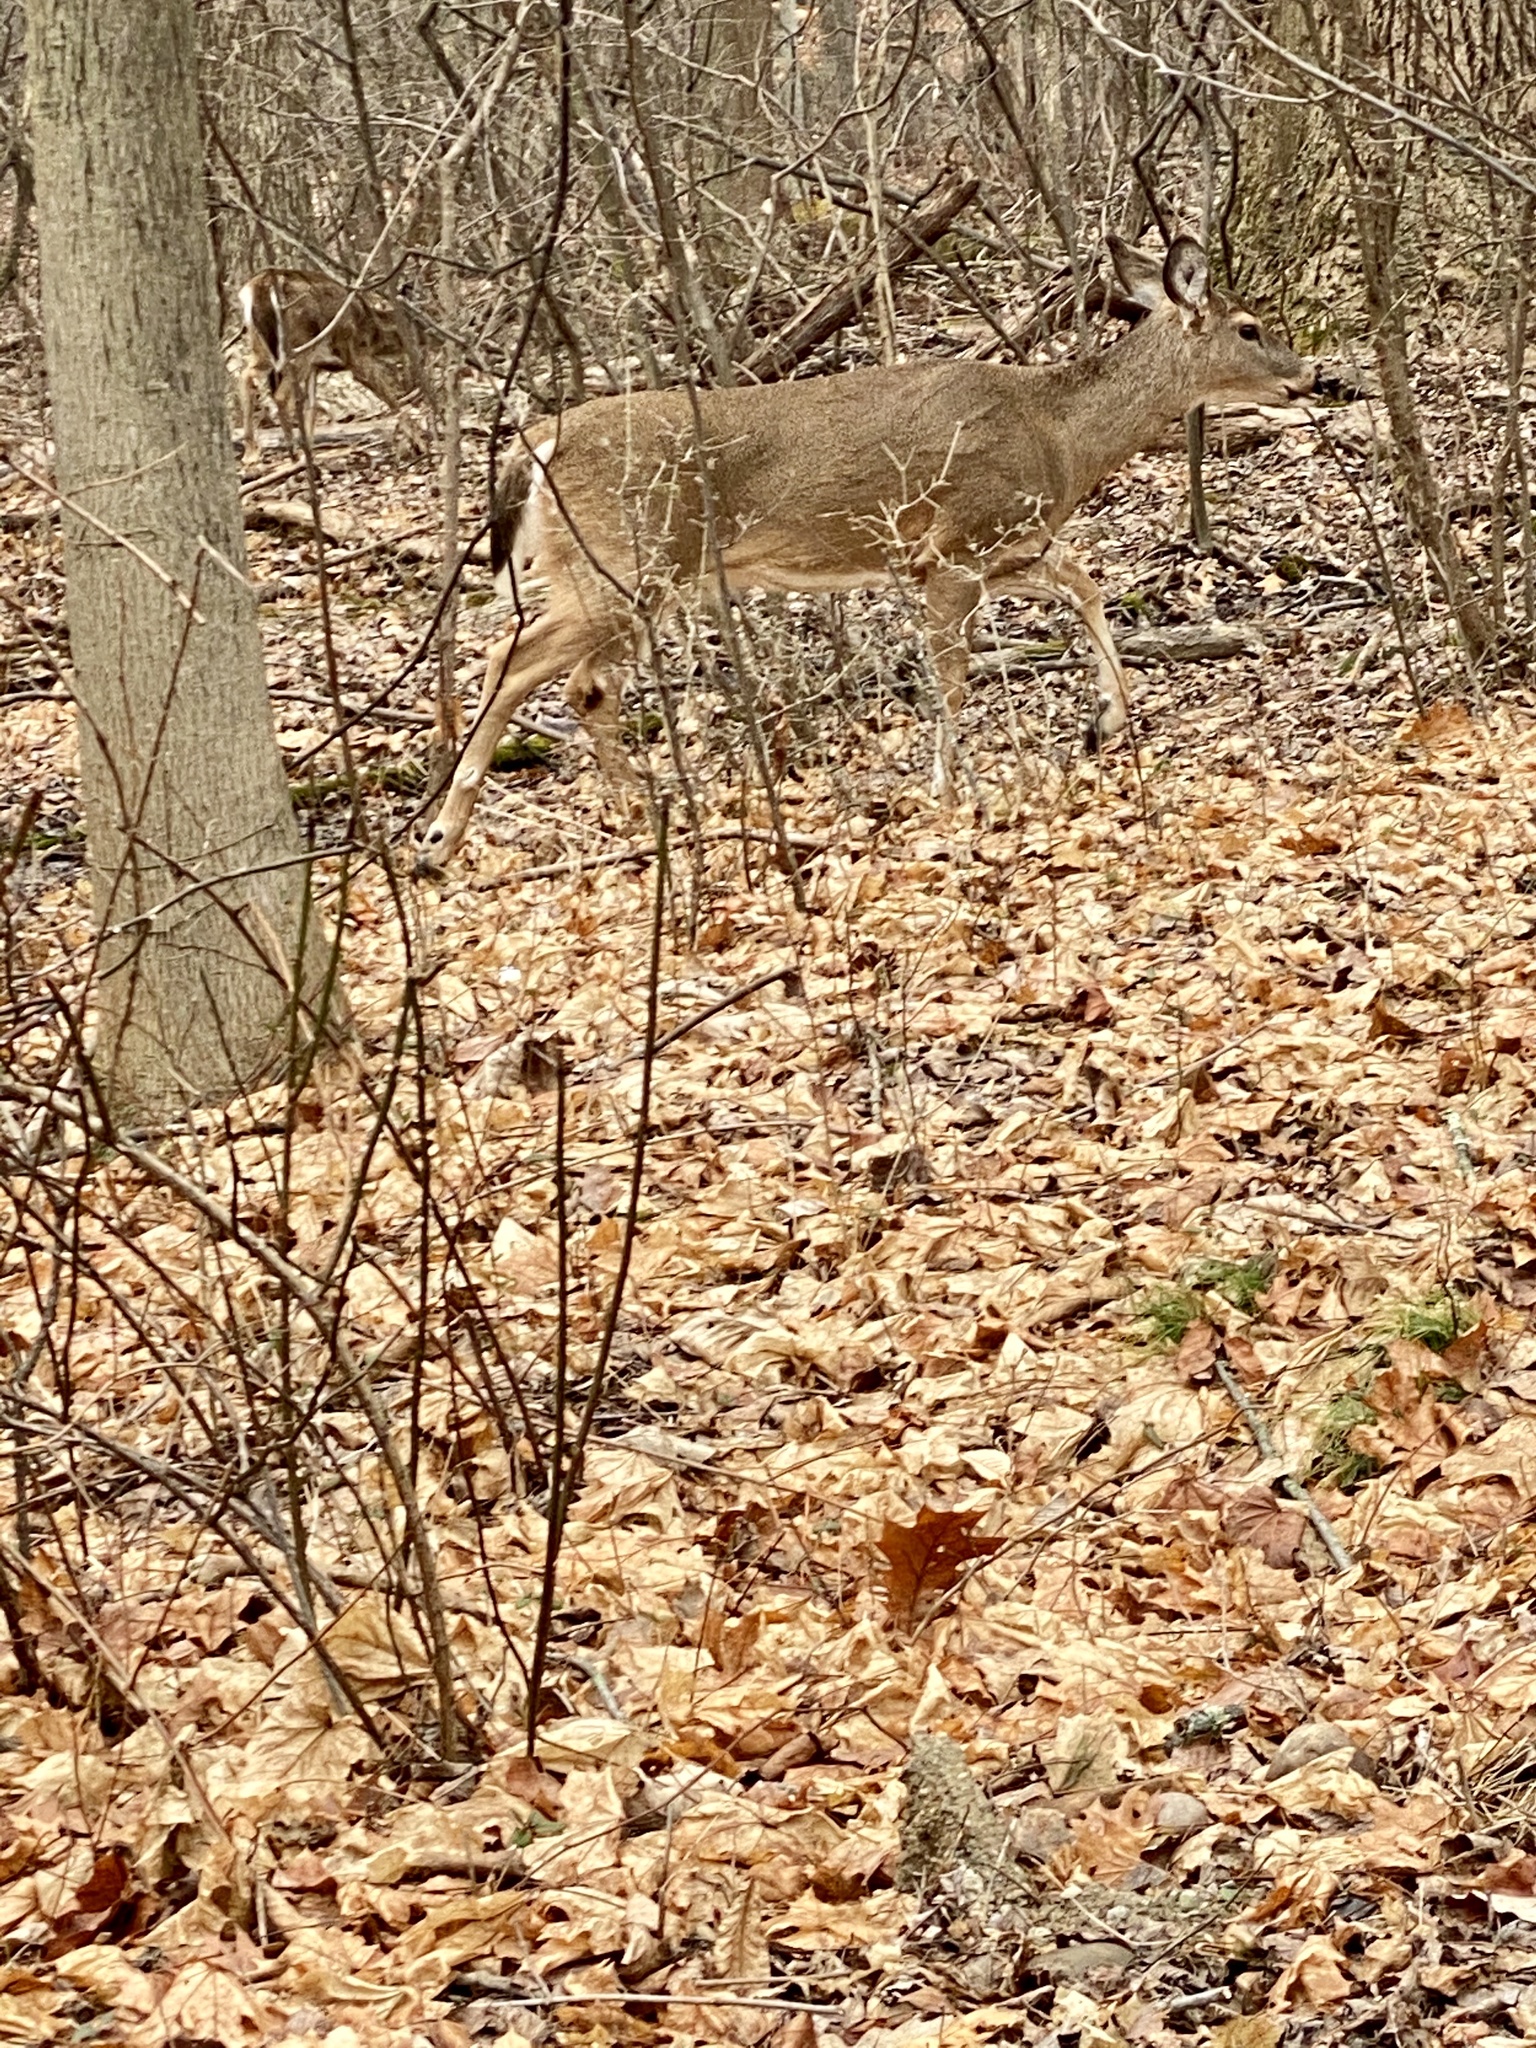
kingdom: Animalia
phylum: Chordata
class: Mammalia
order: Artiodactyla
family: Cervidae
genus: Odocoileus
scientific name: Odocoileus virginianus
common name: White-tailed deer
